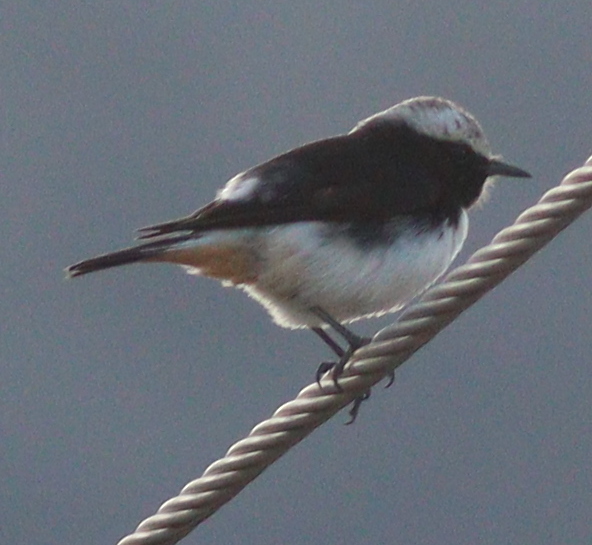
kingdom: Animalia
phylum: Chordata
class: Aves
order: Passeriformes
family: Muscicapidae
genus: Oenanthe
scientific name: Oenanthe lugentoides
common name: Arabian wheatear
